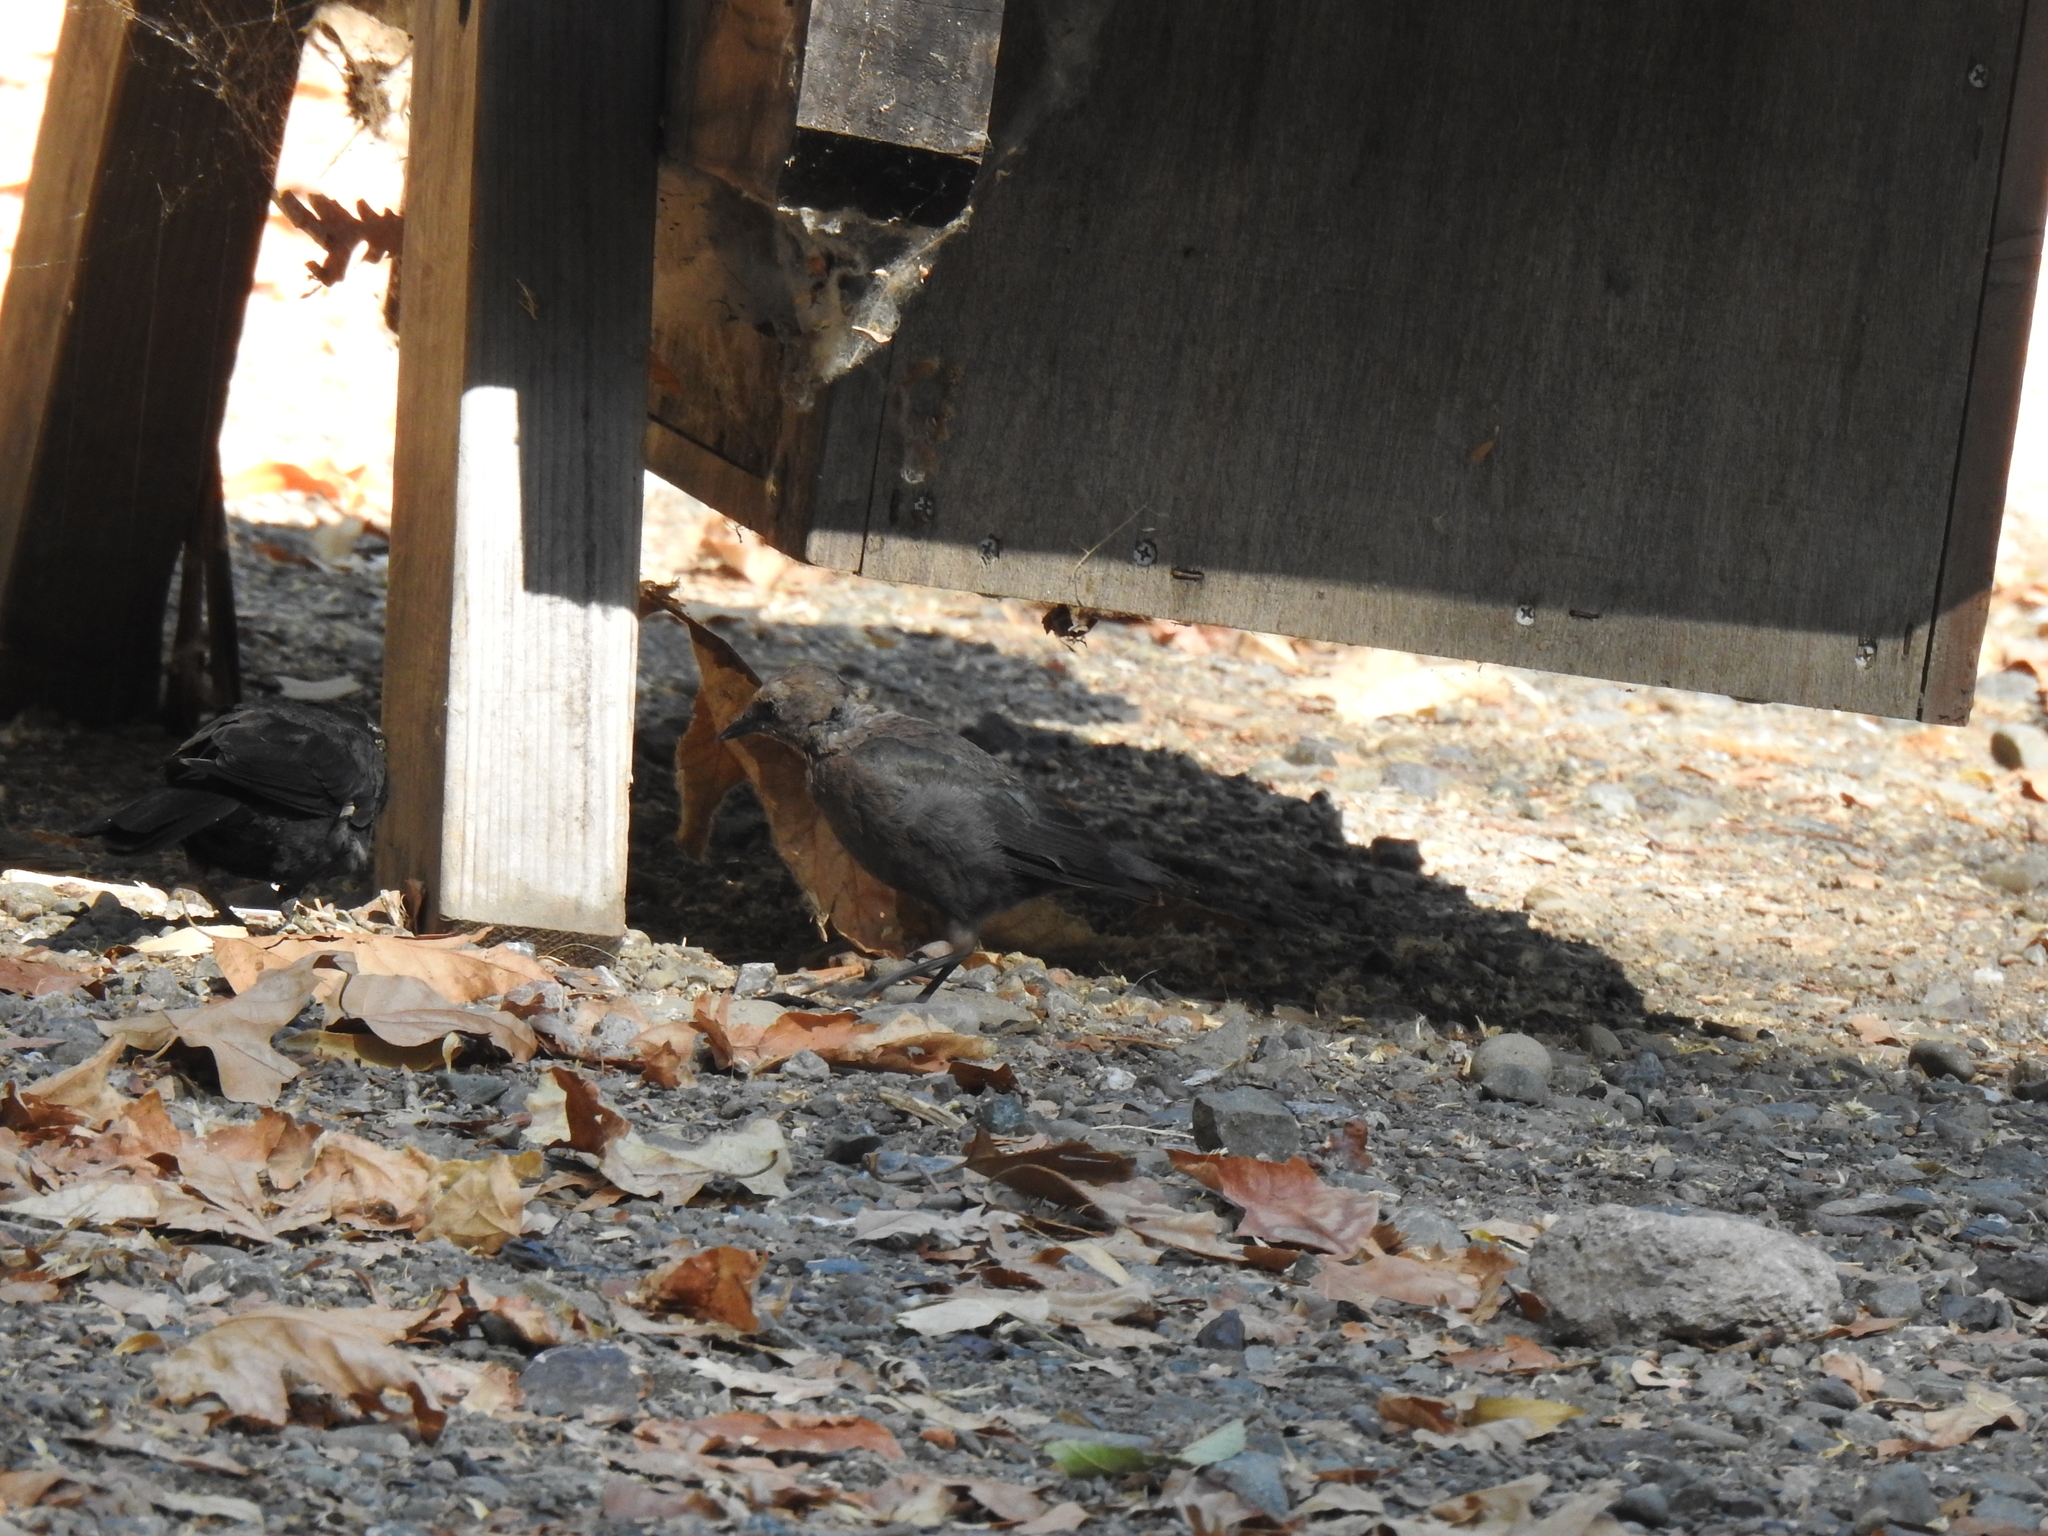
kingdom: Animalia
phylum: Chordata
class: Aves
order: Passeriformes
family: Icteridae
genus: Euphagus
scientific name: Euphagus cyanocephalus
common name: Brewer's blackbird
